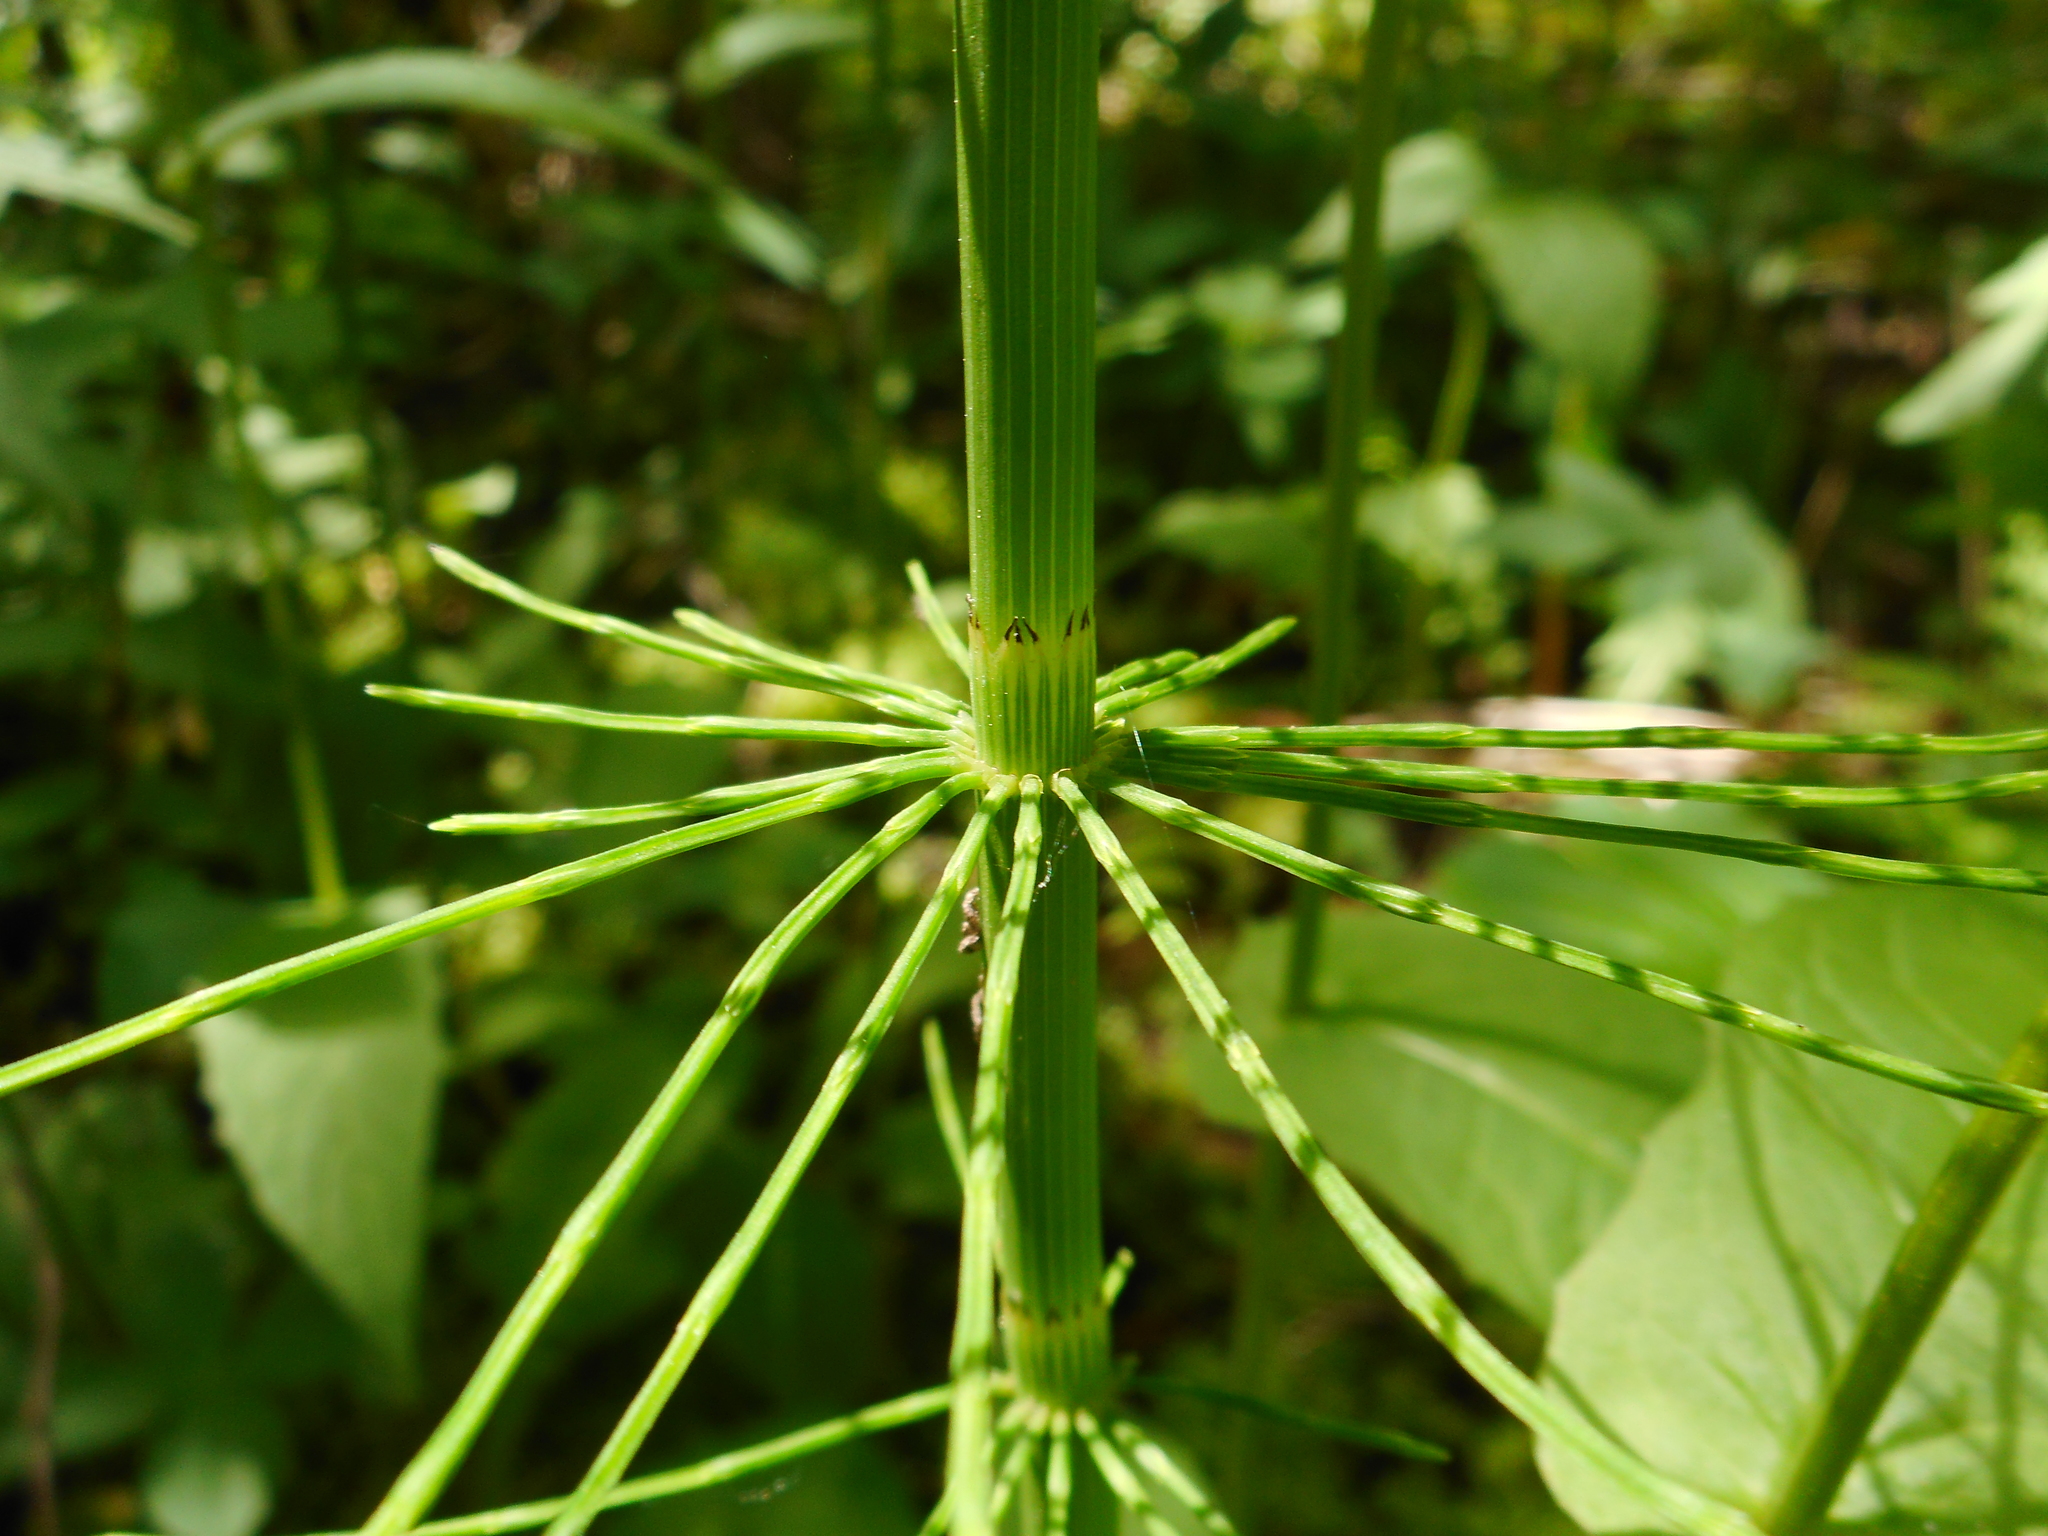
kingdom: Plantae
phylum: Tracheophyta
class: Polypodiopsida
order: Equisetales
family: Equisetaceae
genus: Equisetum
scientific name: Equisetum fluviatile
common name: Water horsetail
